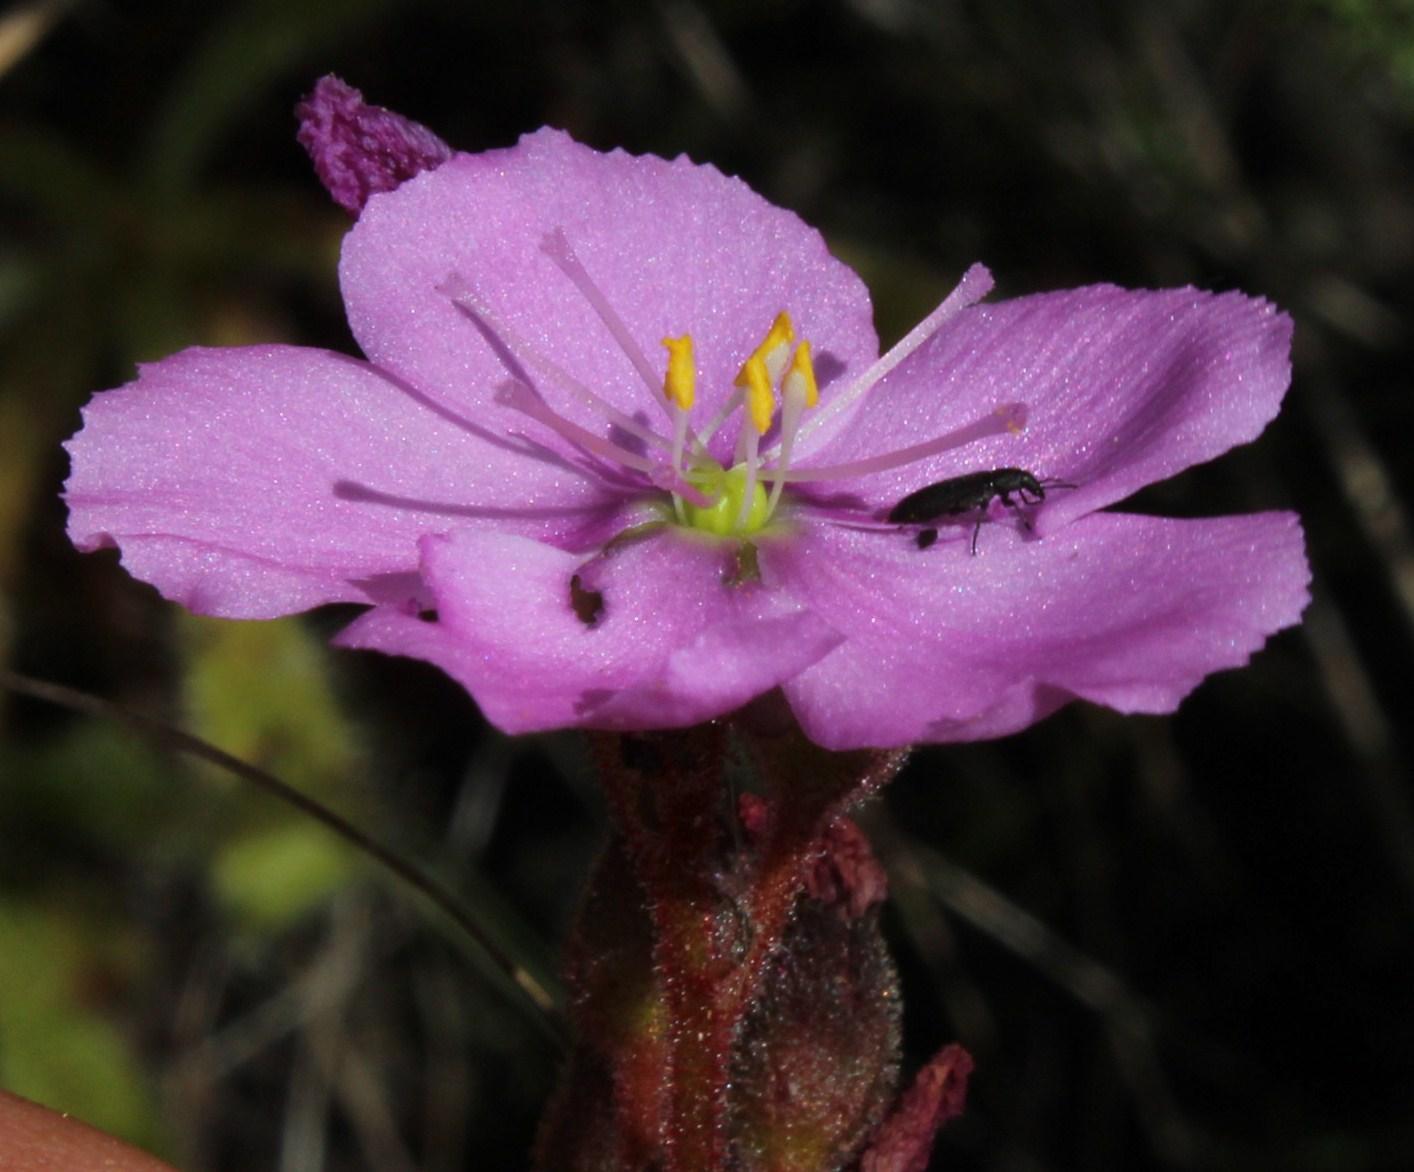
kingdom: Plantae
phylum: Tracheophyta
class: Magnoliopsida
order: Caryophyllales
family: Droseraceae
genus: Drosera
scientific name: Drosera hilaris
